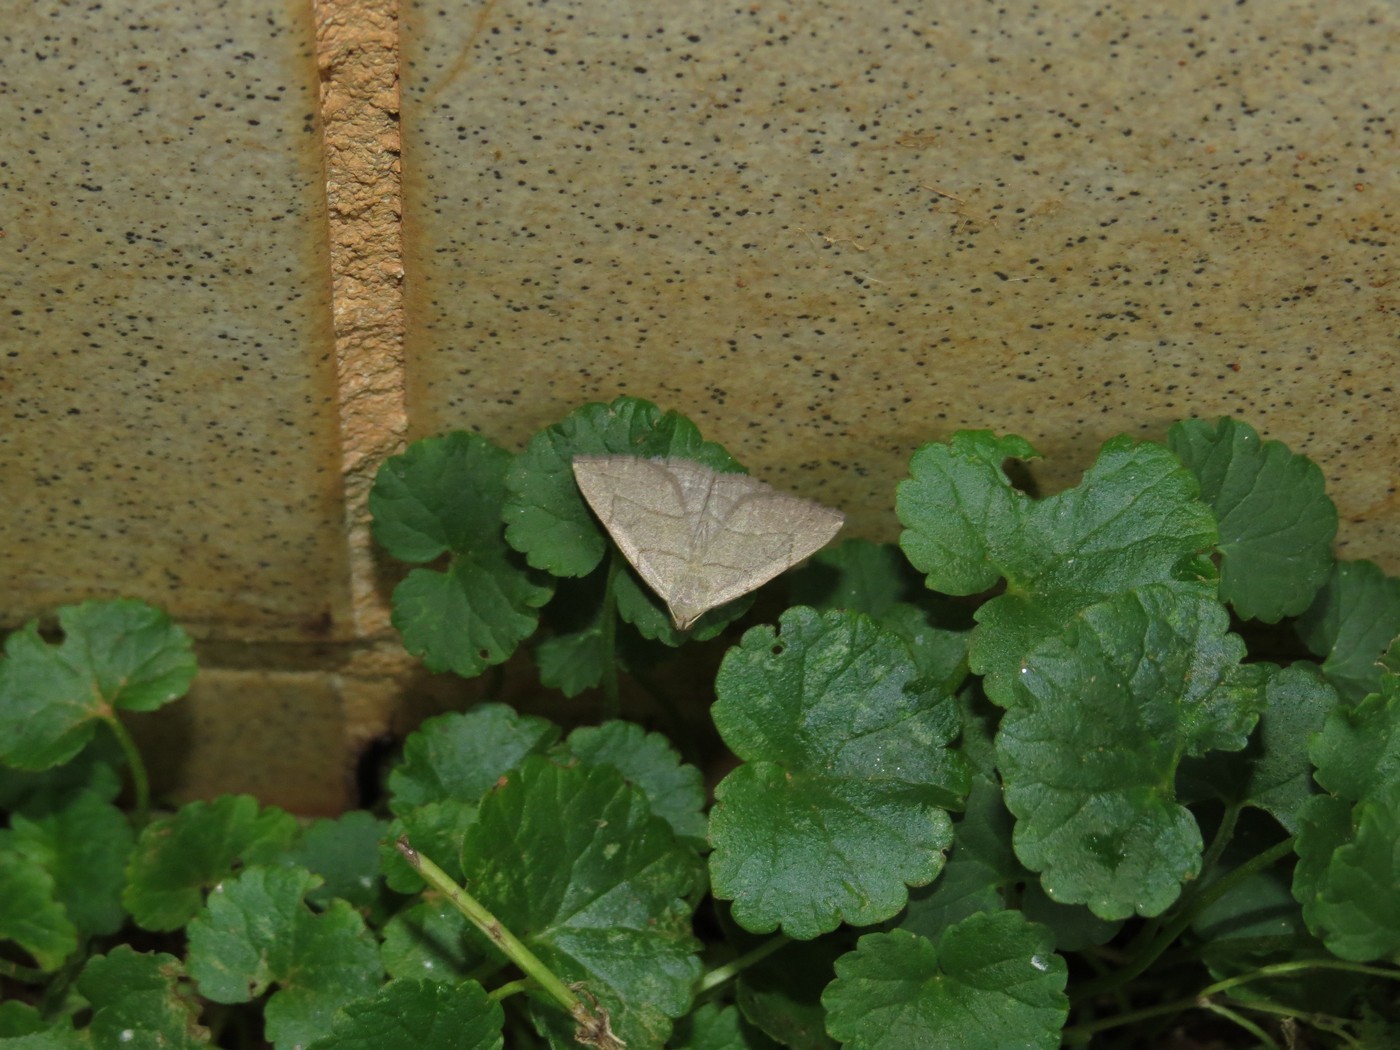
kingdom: Animalia
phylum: Arthropoda
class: Insecta
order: Lepidoptera
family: Erebidae
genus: Macrochilo
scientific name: Macrochilo litophora
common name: Brown-lined owlet
